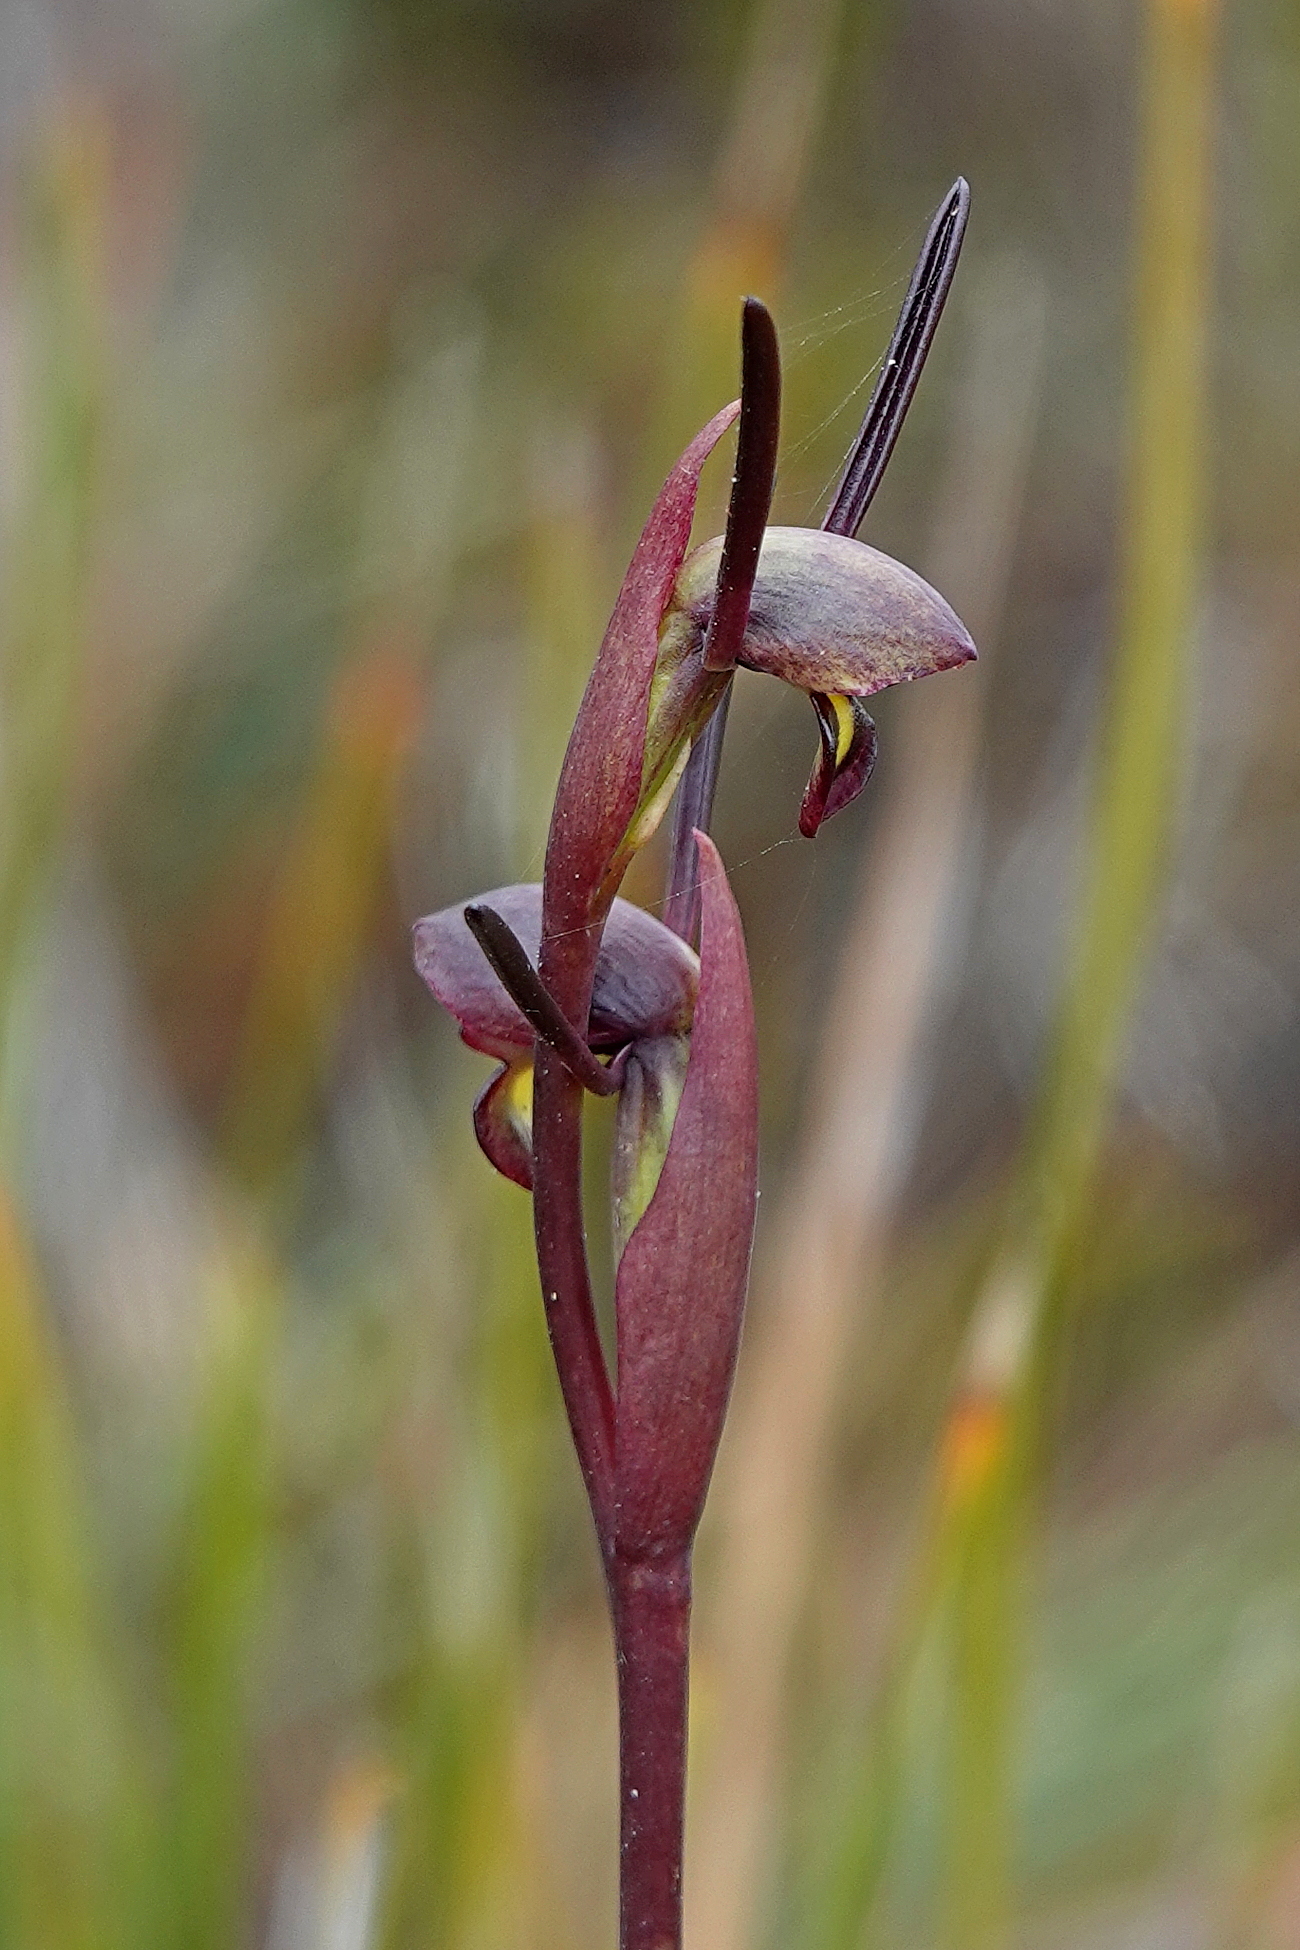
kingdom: Plantae
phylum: Tracheophyta
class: Liliopsida
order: Asparagales
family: Orchidaceae
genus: Orthoceras
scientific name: Orthoceras strictum
